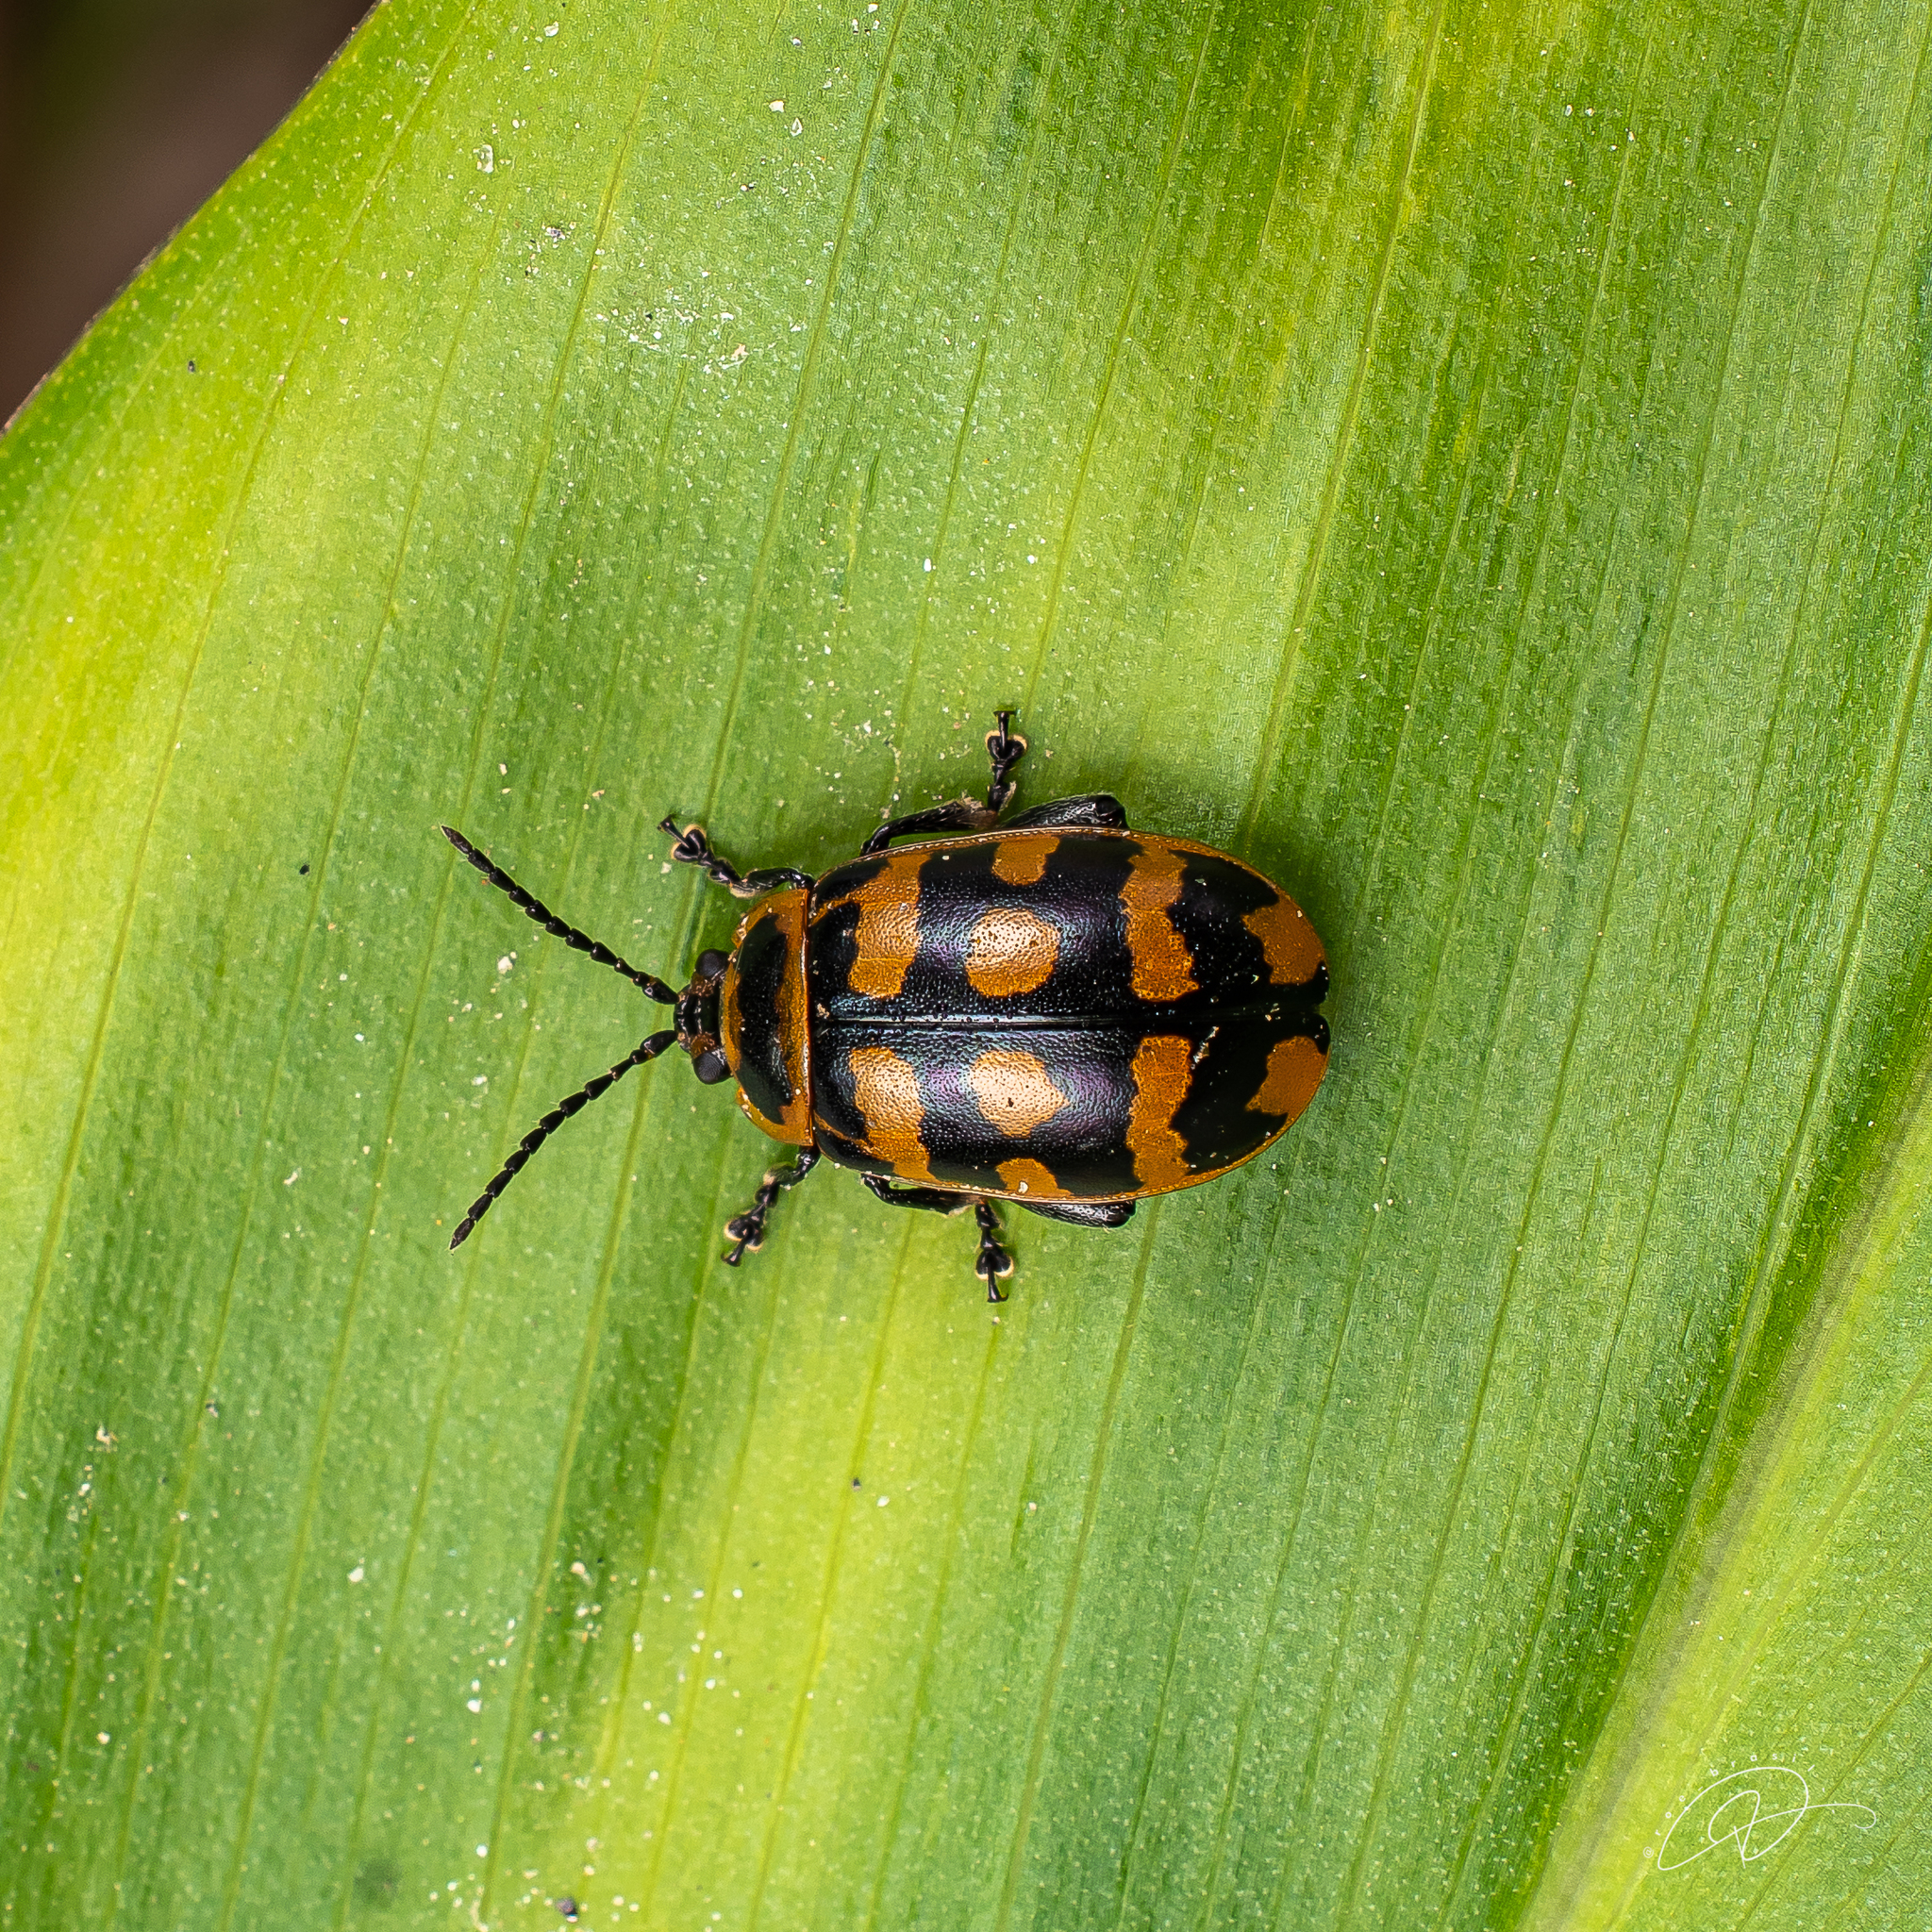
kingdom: Animalia
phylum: Arthropoda
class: Insecta
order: Coleoptera
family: Chrysomelidae
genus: Alagoasa
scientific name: Alagoasa
